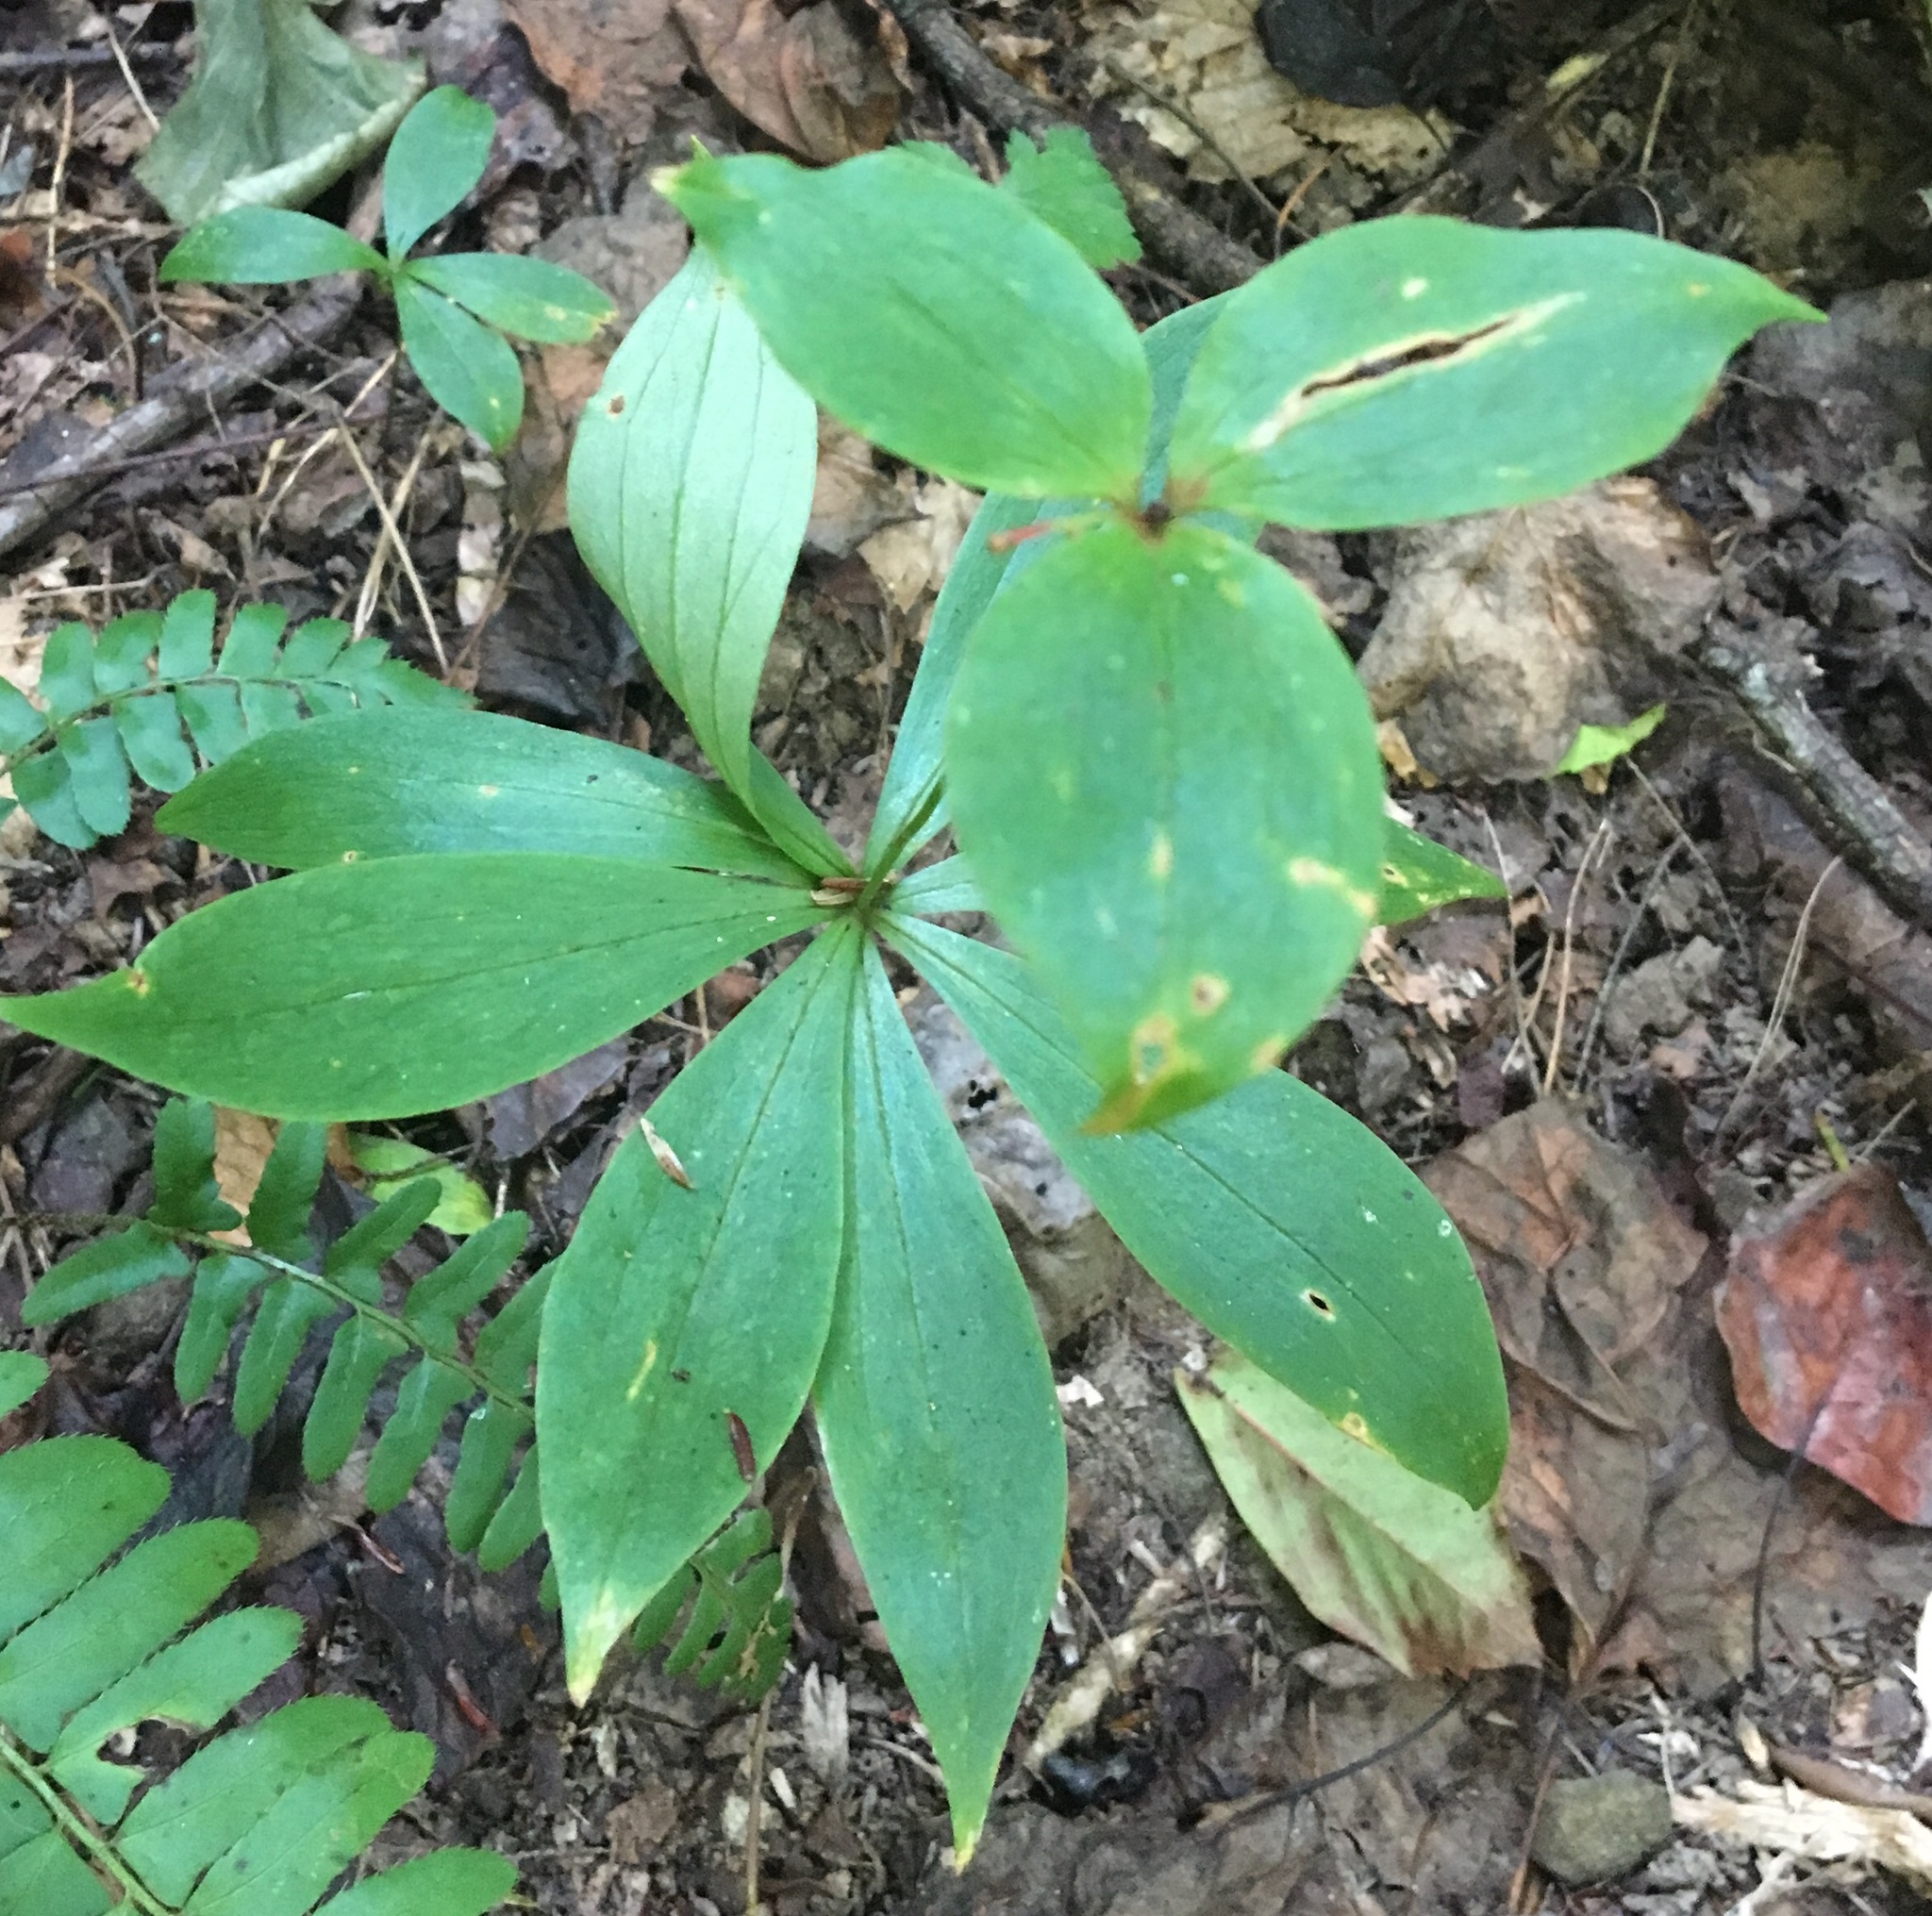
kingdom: Plantae
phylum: Tracheophyta
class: Liliopsida
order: Liliales
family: Liliaceae
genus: Medeola
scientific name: Medeola virginiana
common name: Indian cucumber-root
